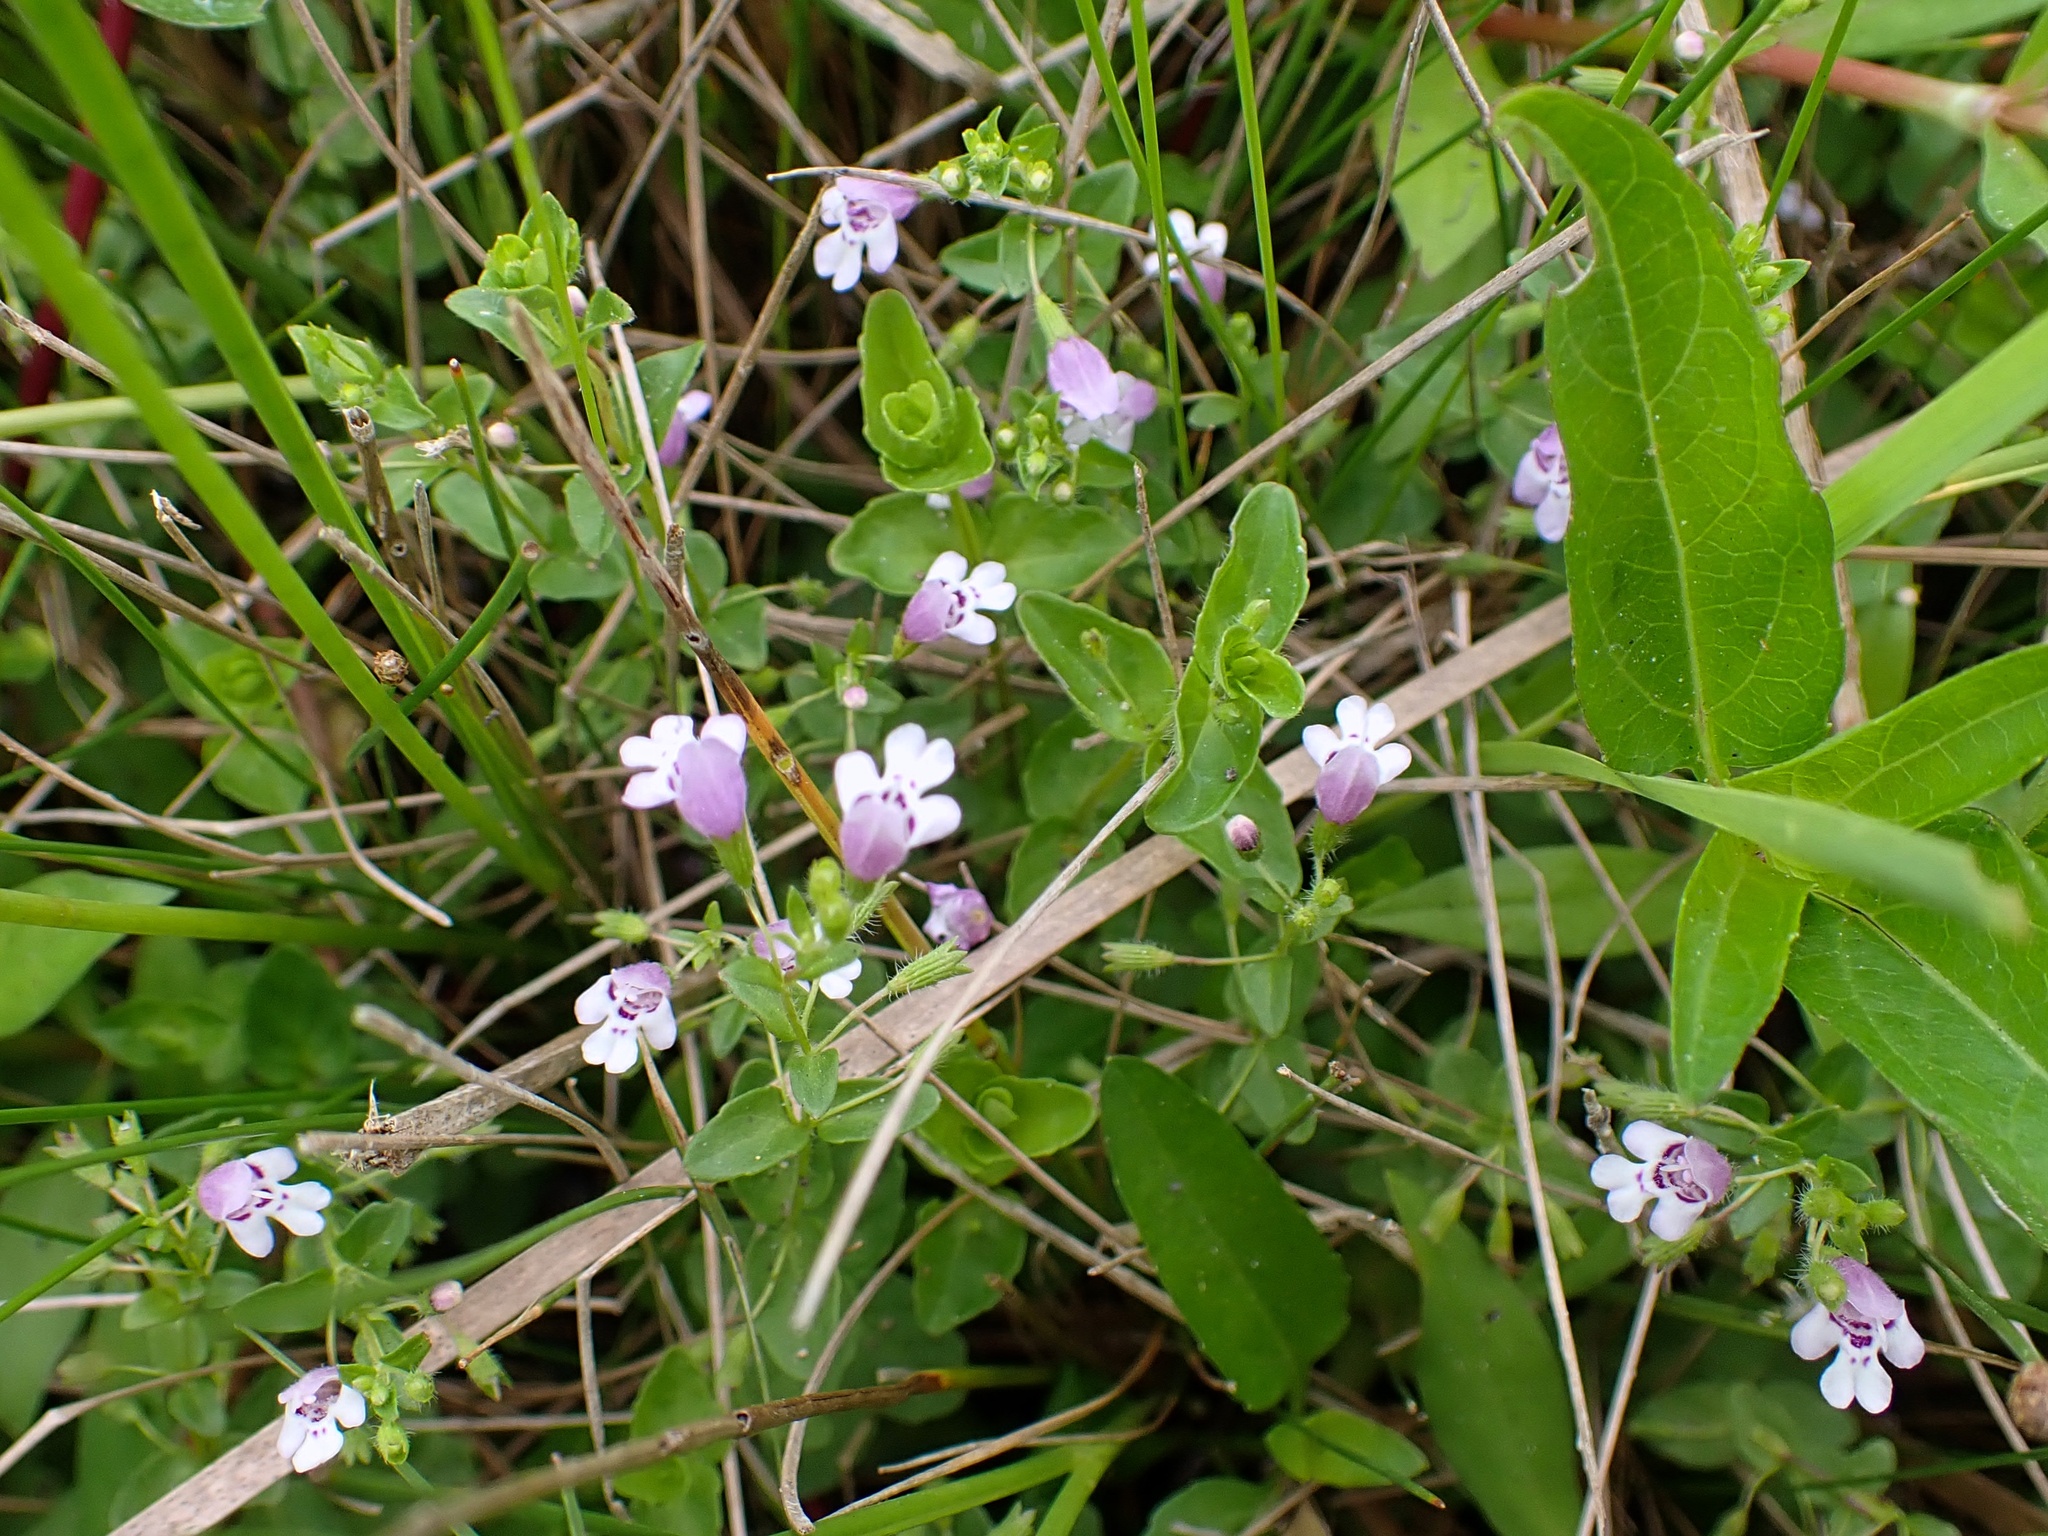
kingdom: Plantae
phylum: Tracheophyta
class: Magnoliopsida
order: Lamiales
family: Lamiaceae
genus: Clinopodium
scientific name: Clinopodium brownei
